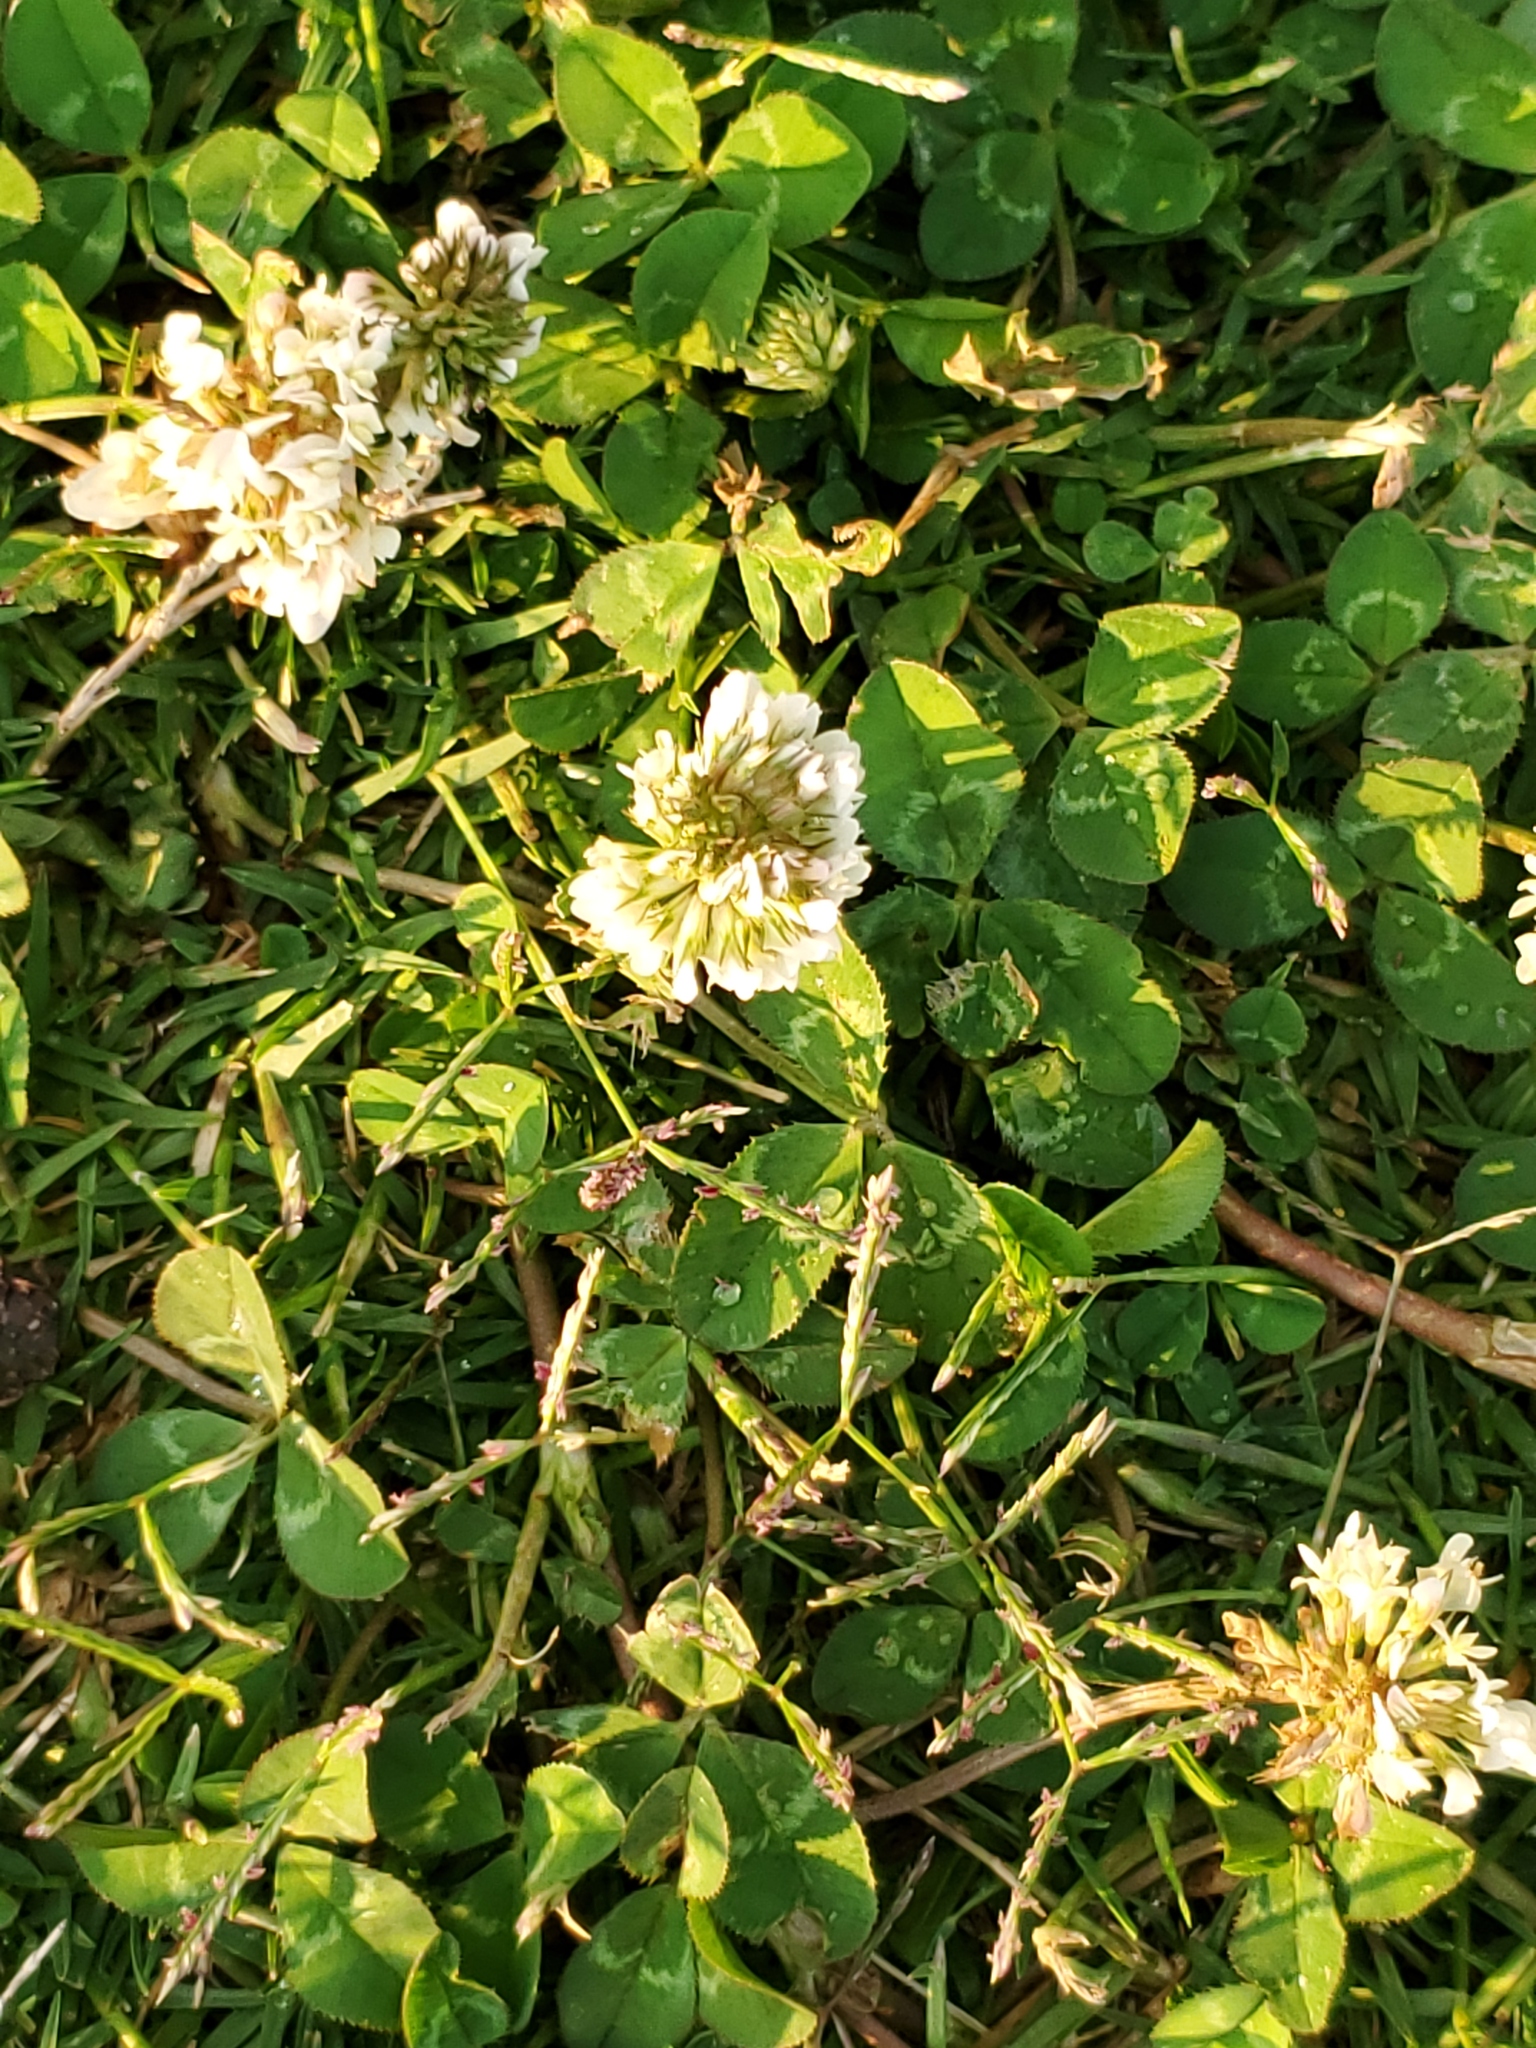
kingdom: Plantae
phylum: Tracheophyta
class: Magnoliopsida
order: Fabales
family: Fabaceae
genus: Trifolium
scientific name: Trifolium repens
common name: White clover
